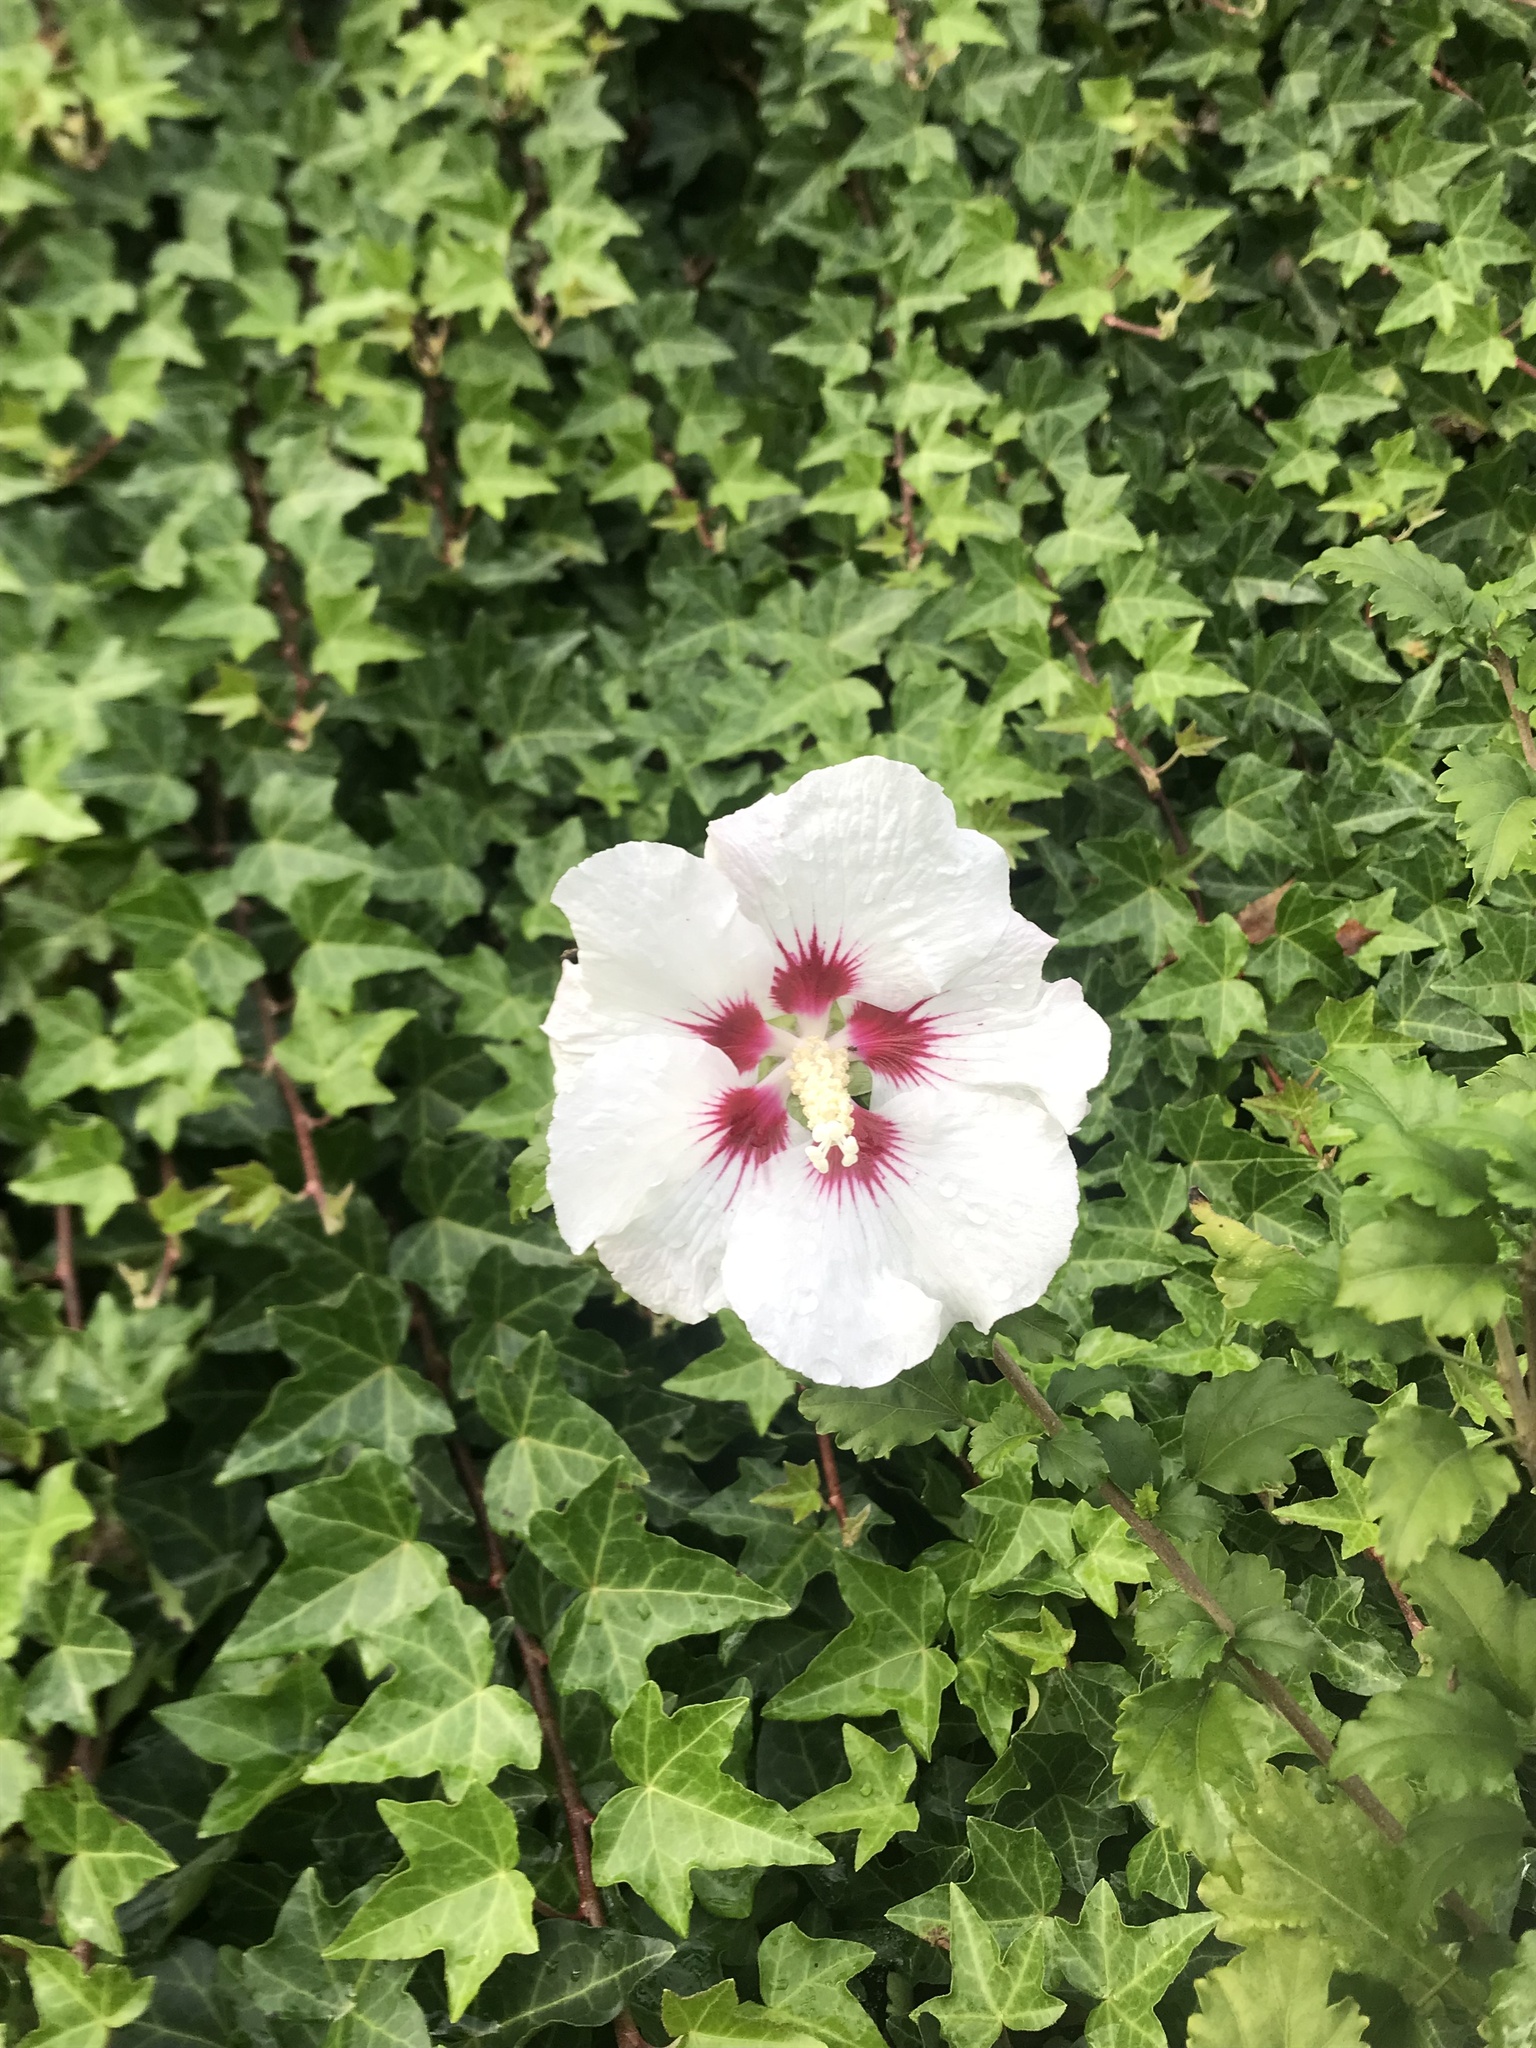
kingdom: Plantae
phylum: Tracheophyta
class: Magnoliopsida
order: Malvales
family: Malvaceae
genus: Hibiscus
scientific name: Hibiscus syriacus
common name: Syrian ketmia
